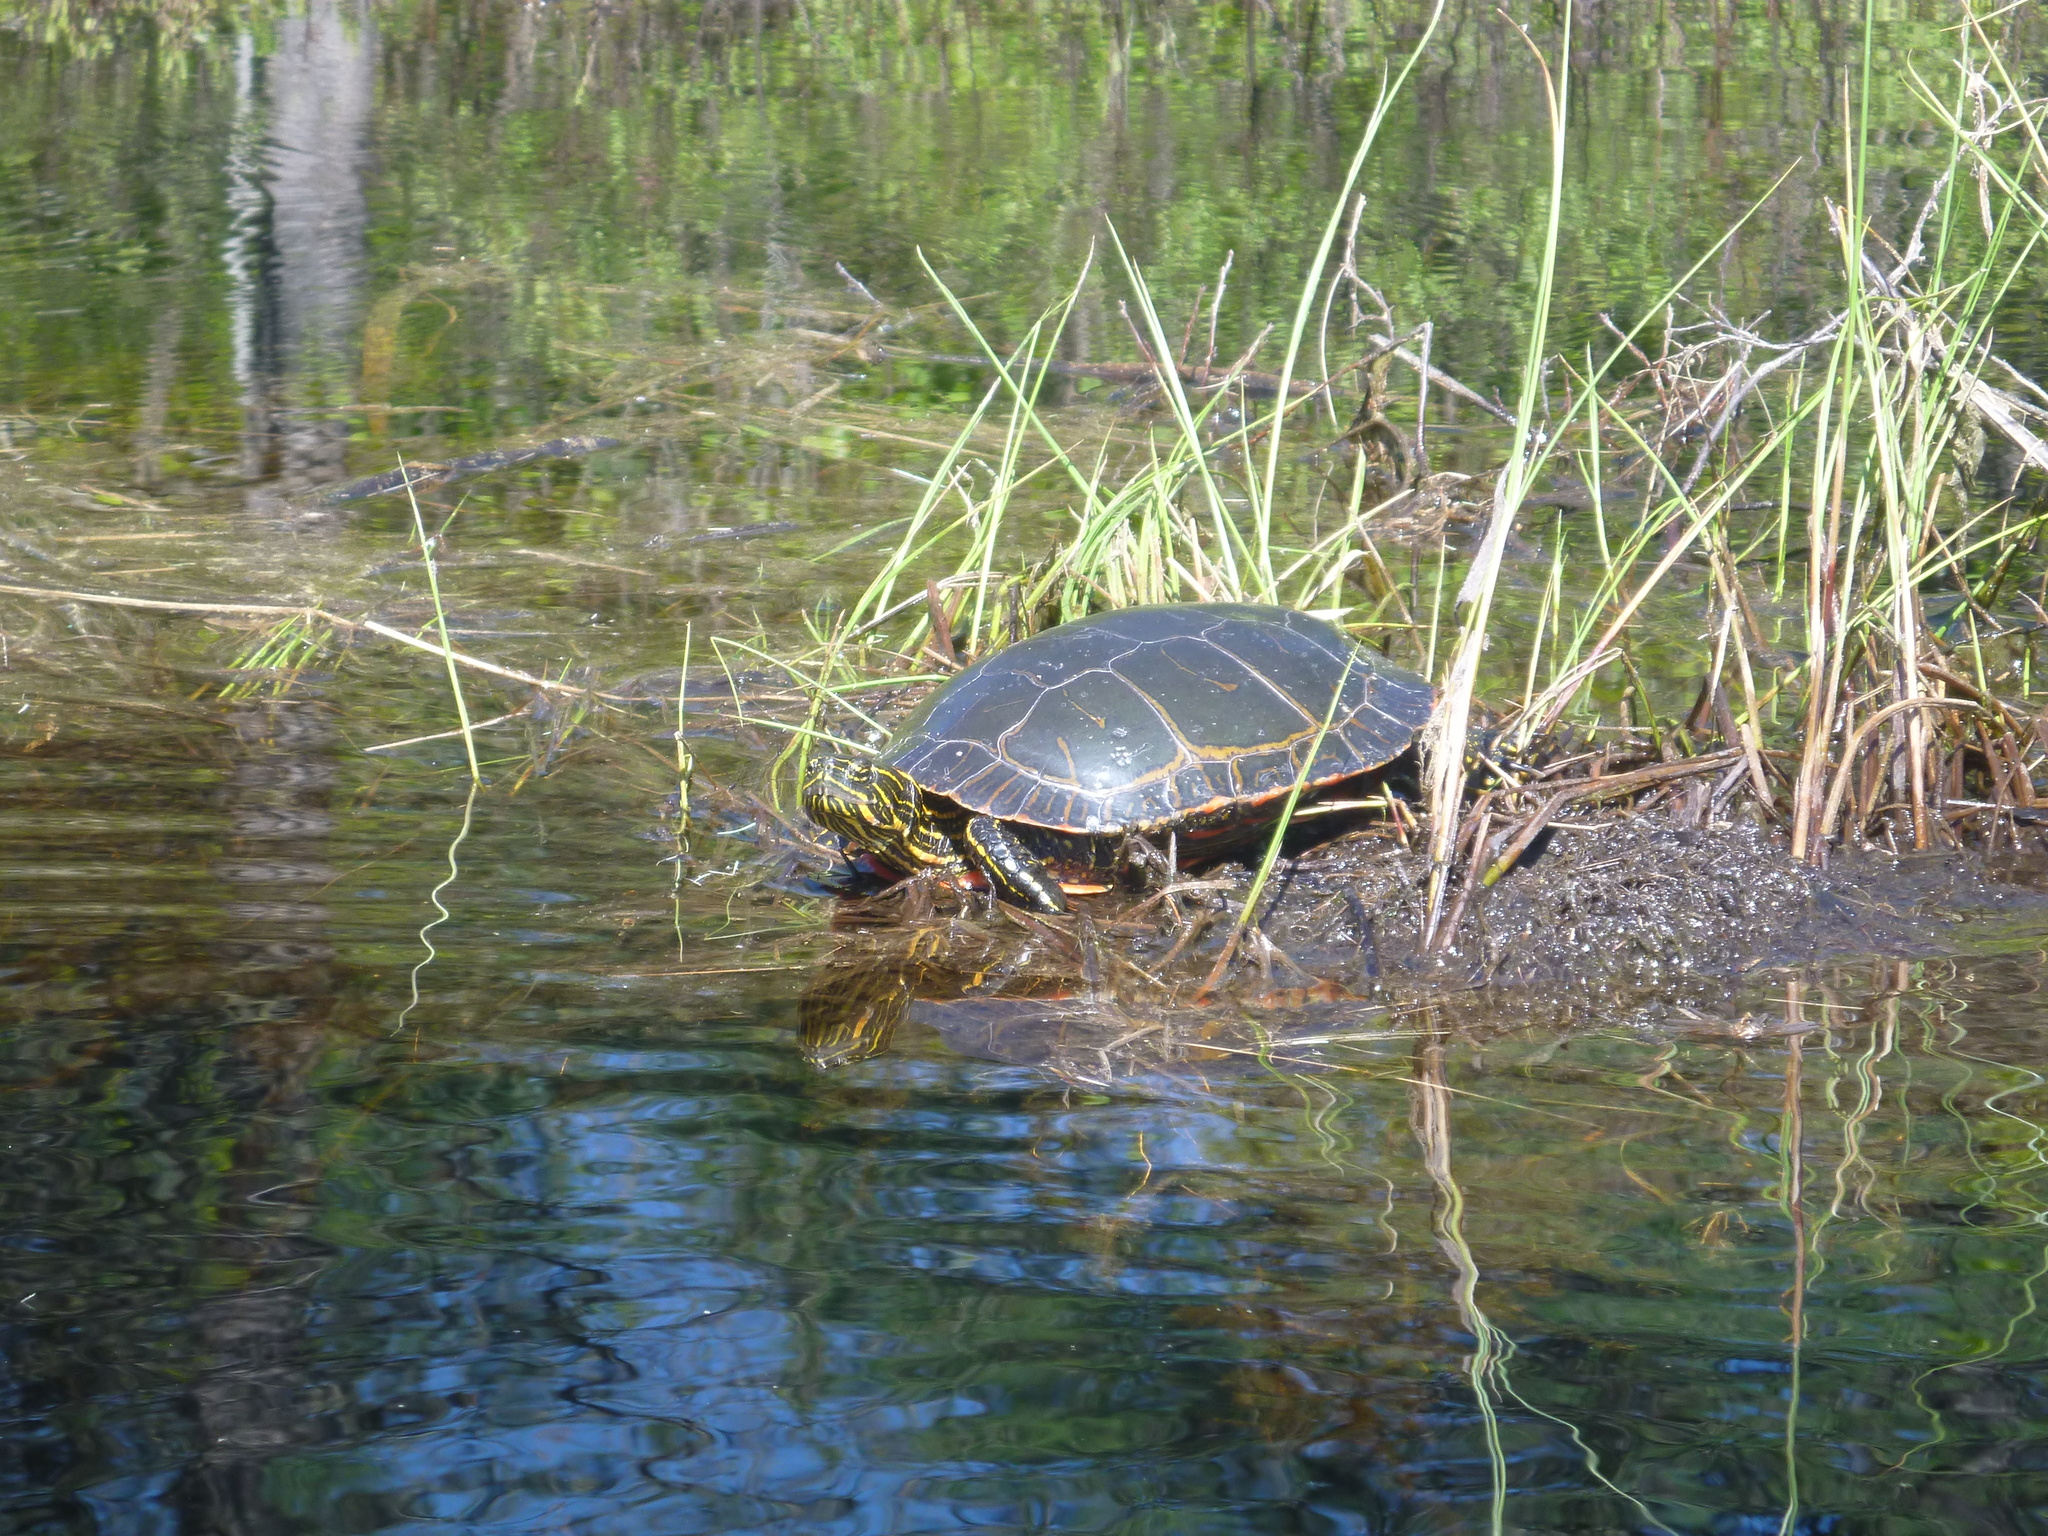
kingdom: Animalia
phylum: Chordata
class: Testudines
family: Emydidae
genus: Chrysemys
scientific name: Chrysemys picta
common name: Painted turtle
